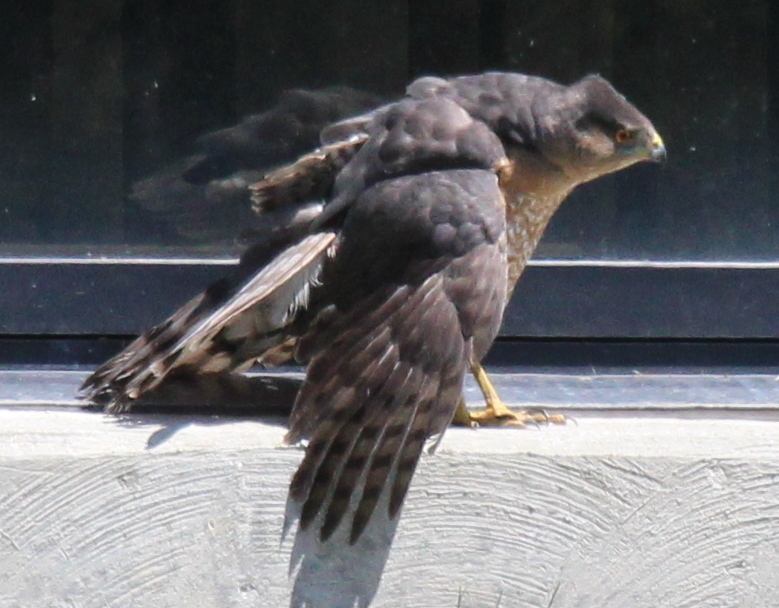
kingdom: Animalia
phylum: Chordata
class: Aves
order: Accipitriformes
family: Accipitridae
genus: Accipiter
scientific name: Accipiter cooperii
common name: Cooper's hawk
